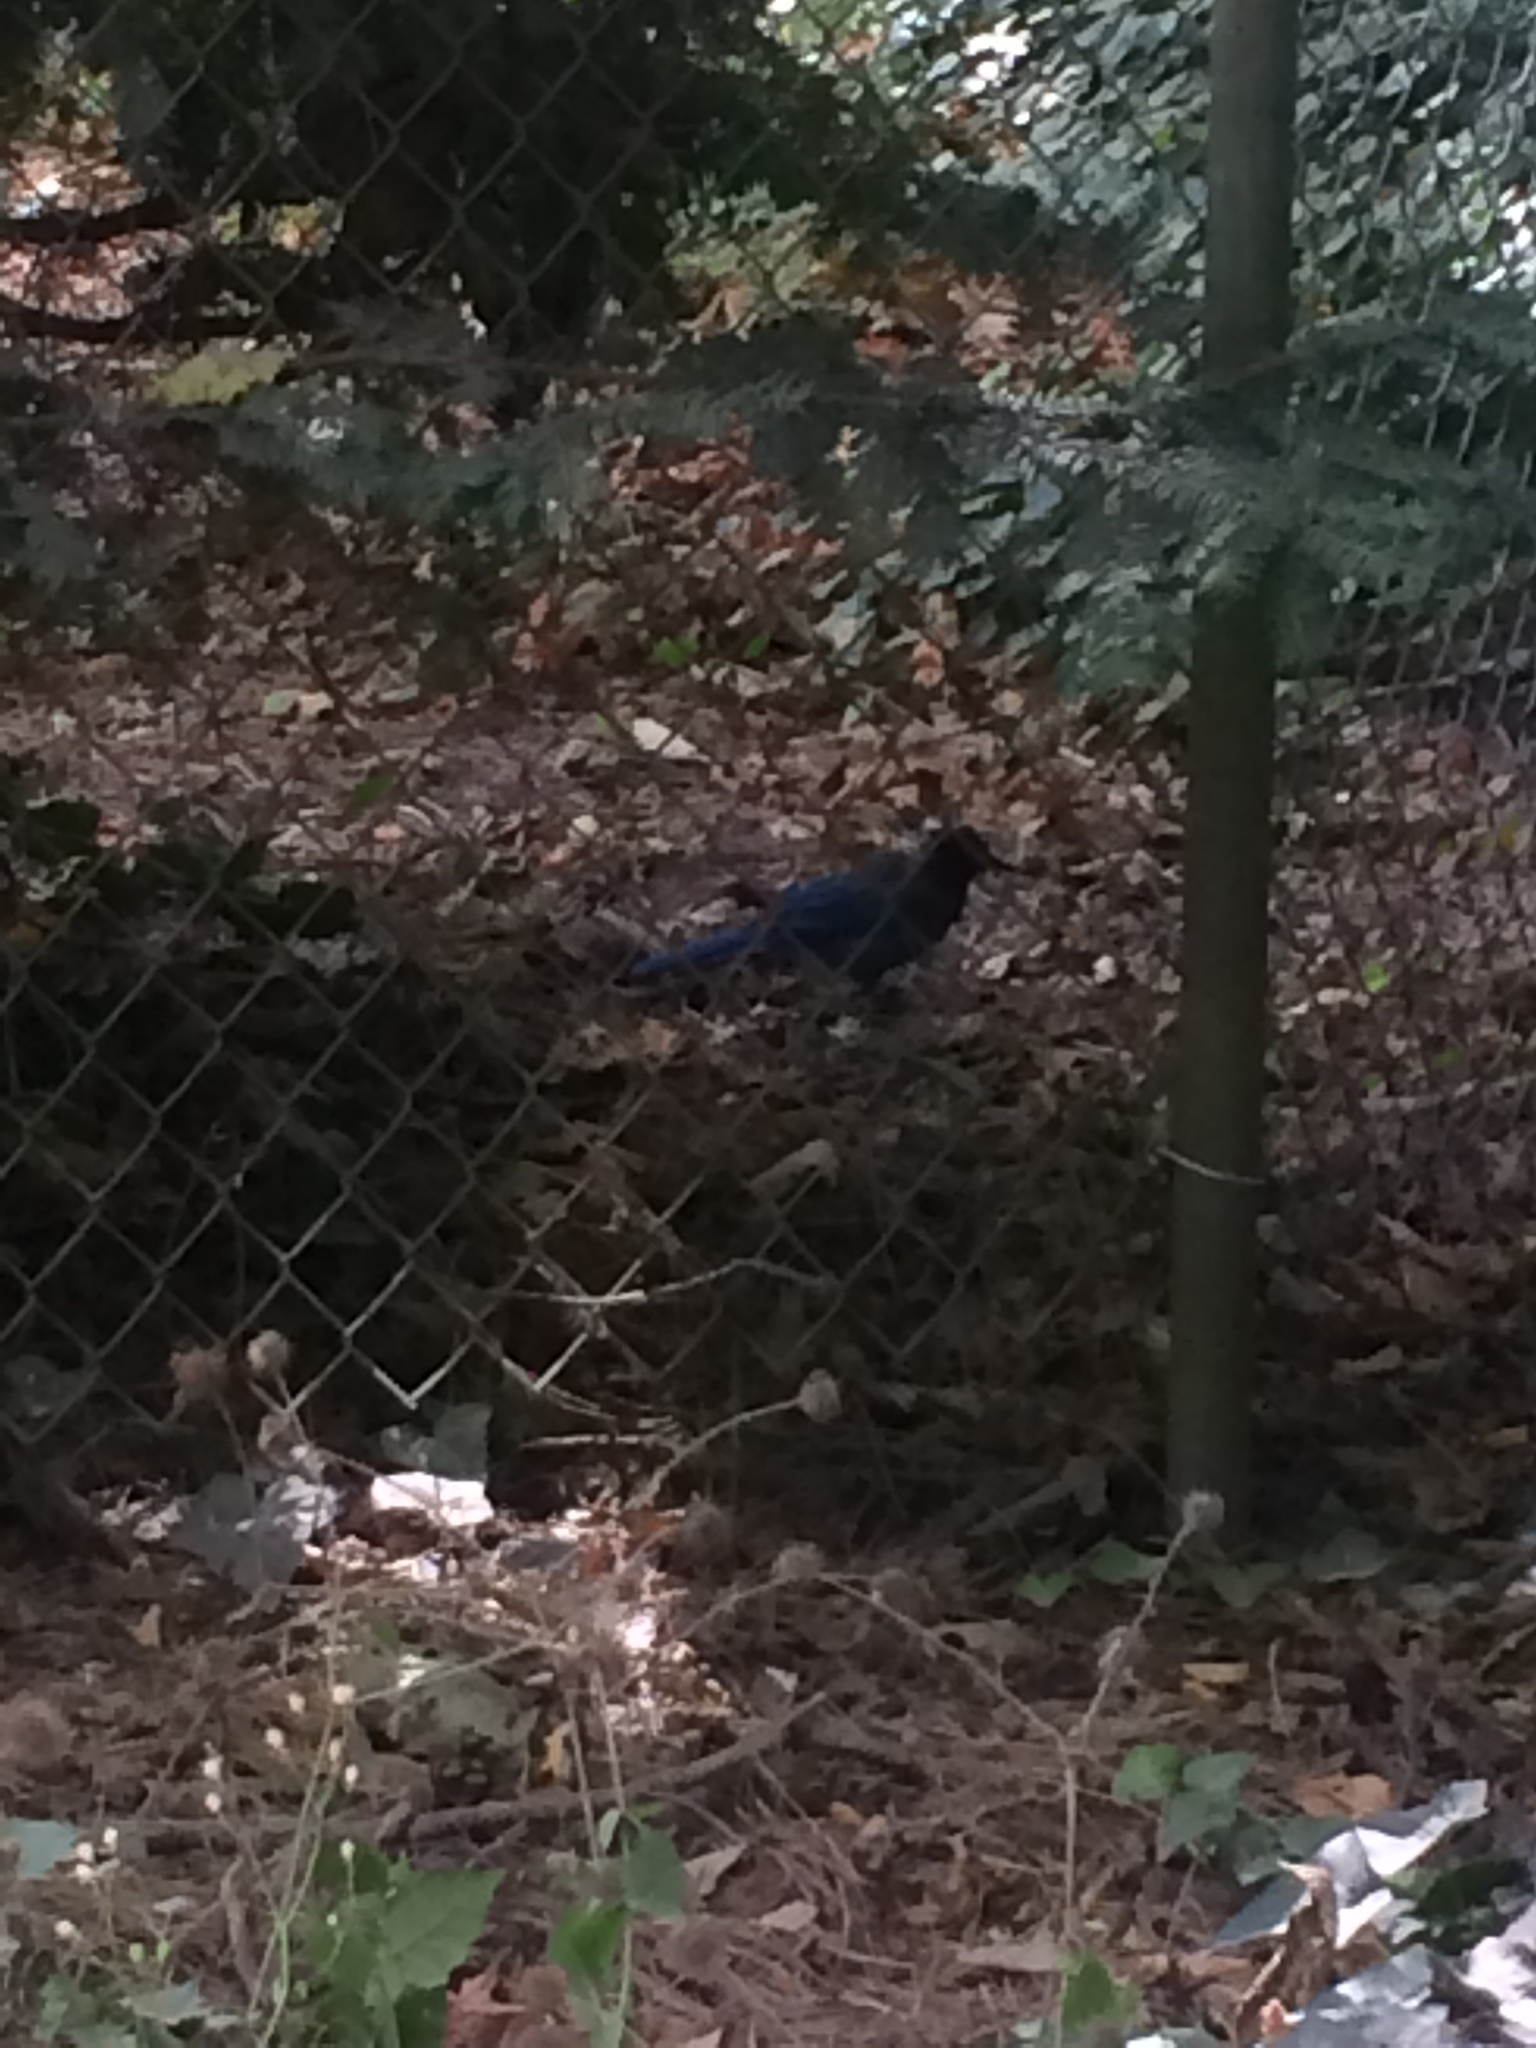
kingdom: Animalia
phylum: Chordata
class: Aves
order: Passeriformes
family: Corvidae
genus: Cyanocitta
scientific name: Cyanocitta stelleri
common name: Steller's jay
